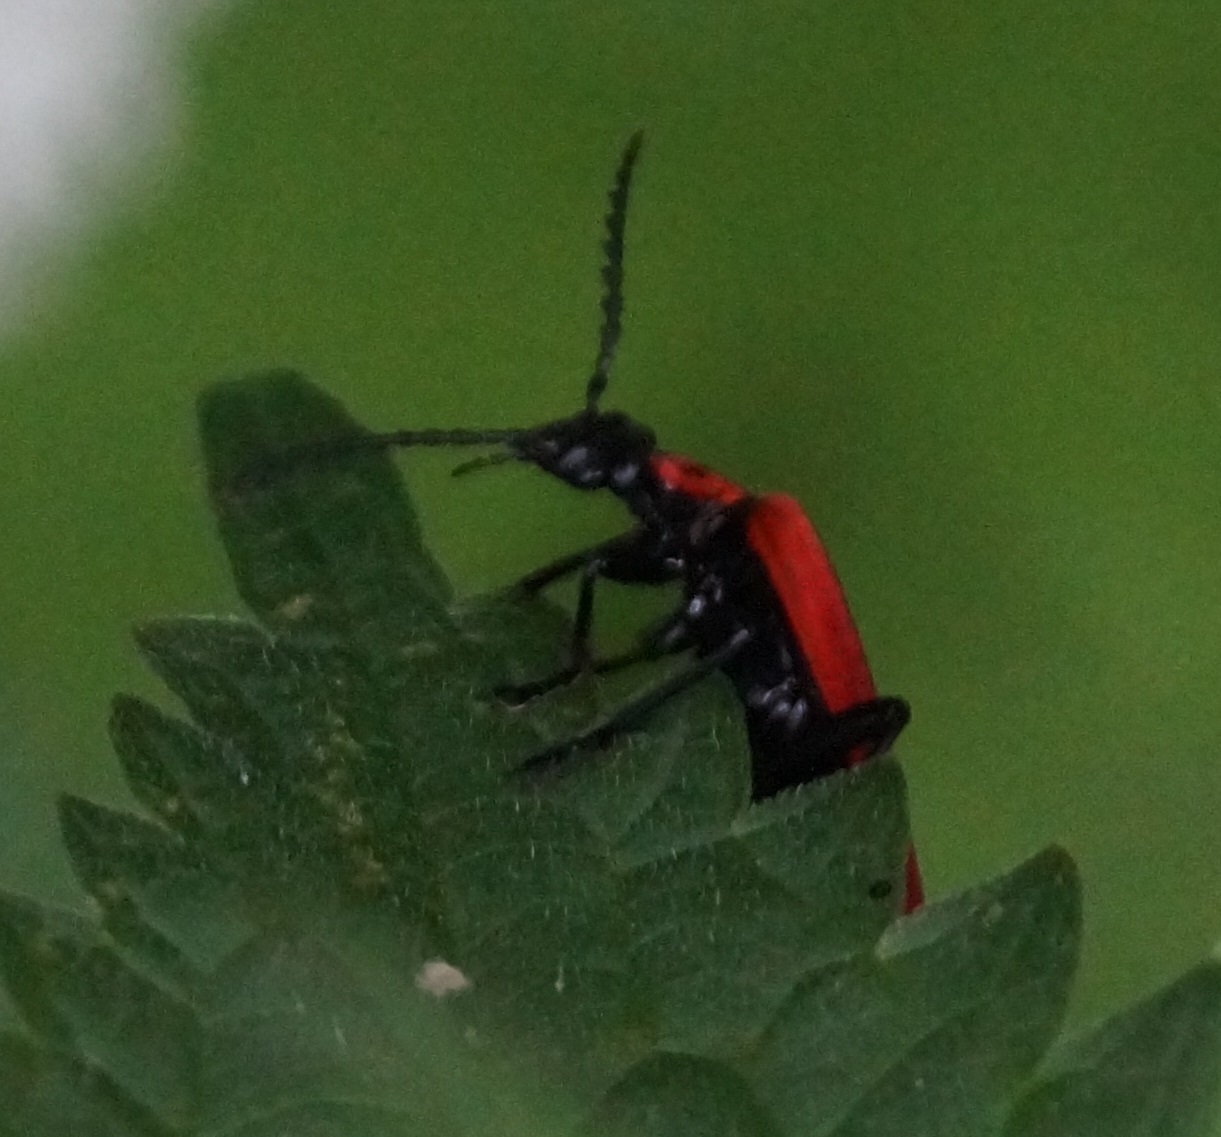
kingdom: Animalia
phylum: Arthropoda
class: Insecta
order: Coleoptera
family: Pyrochroidae
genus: Pyrochroa
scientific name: Pyrochroa coccinea
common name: Black-headed cardinal beetle
